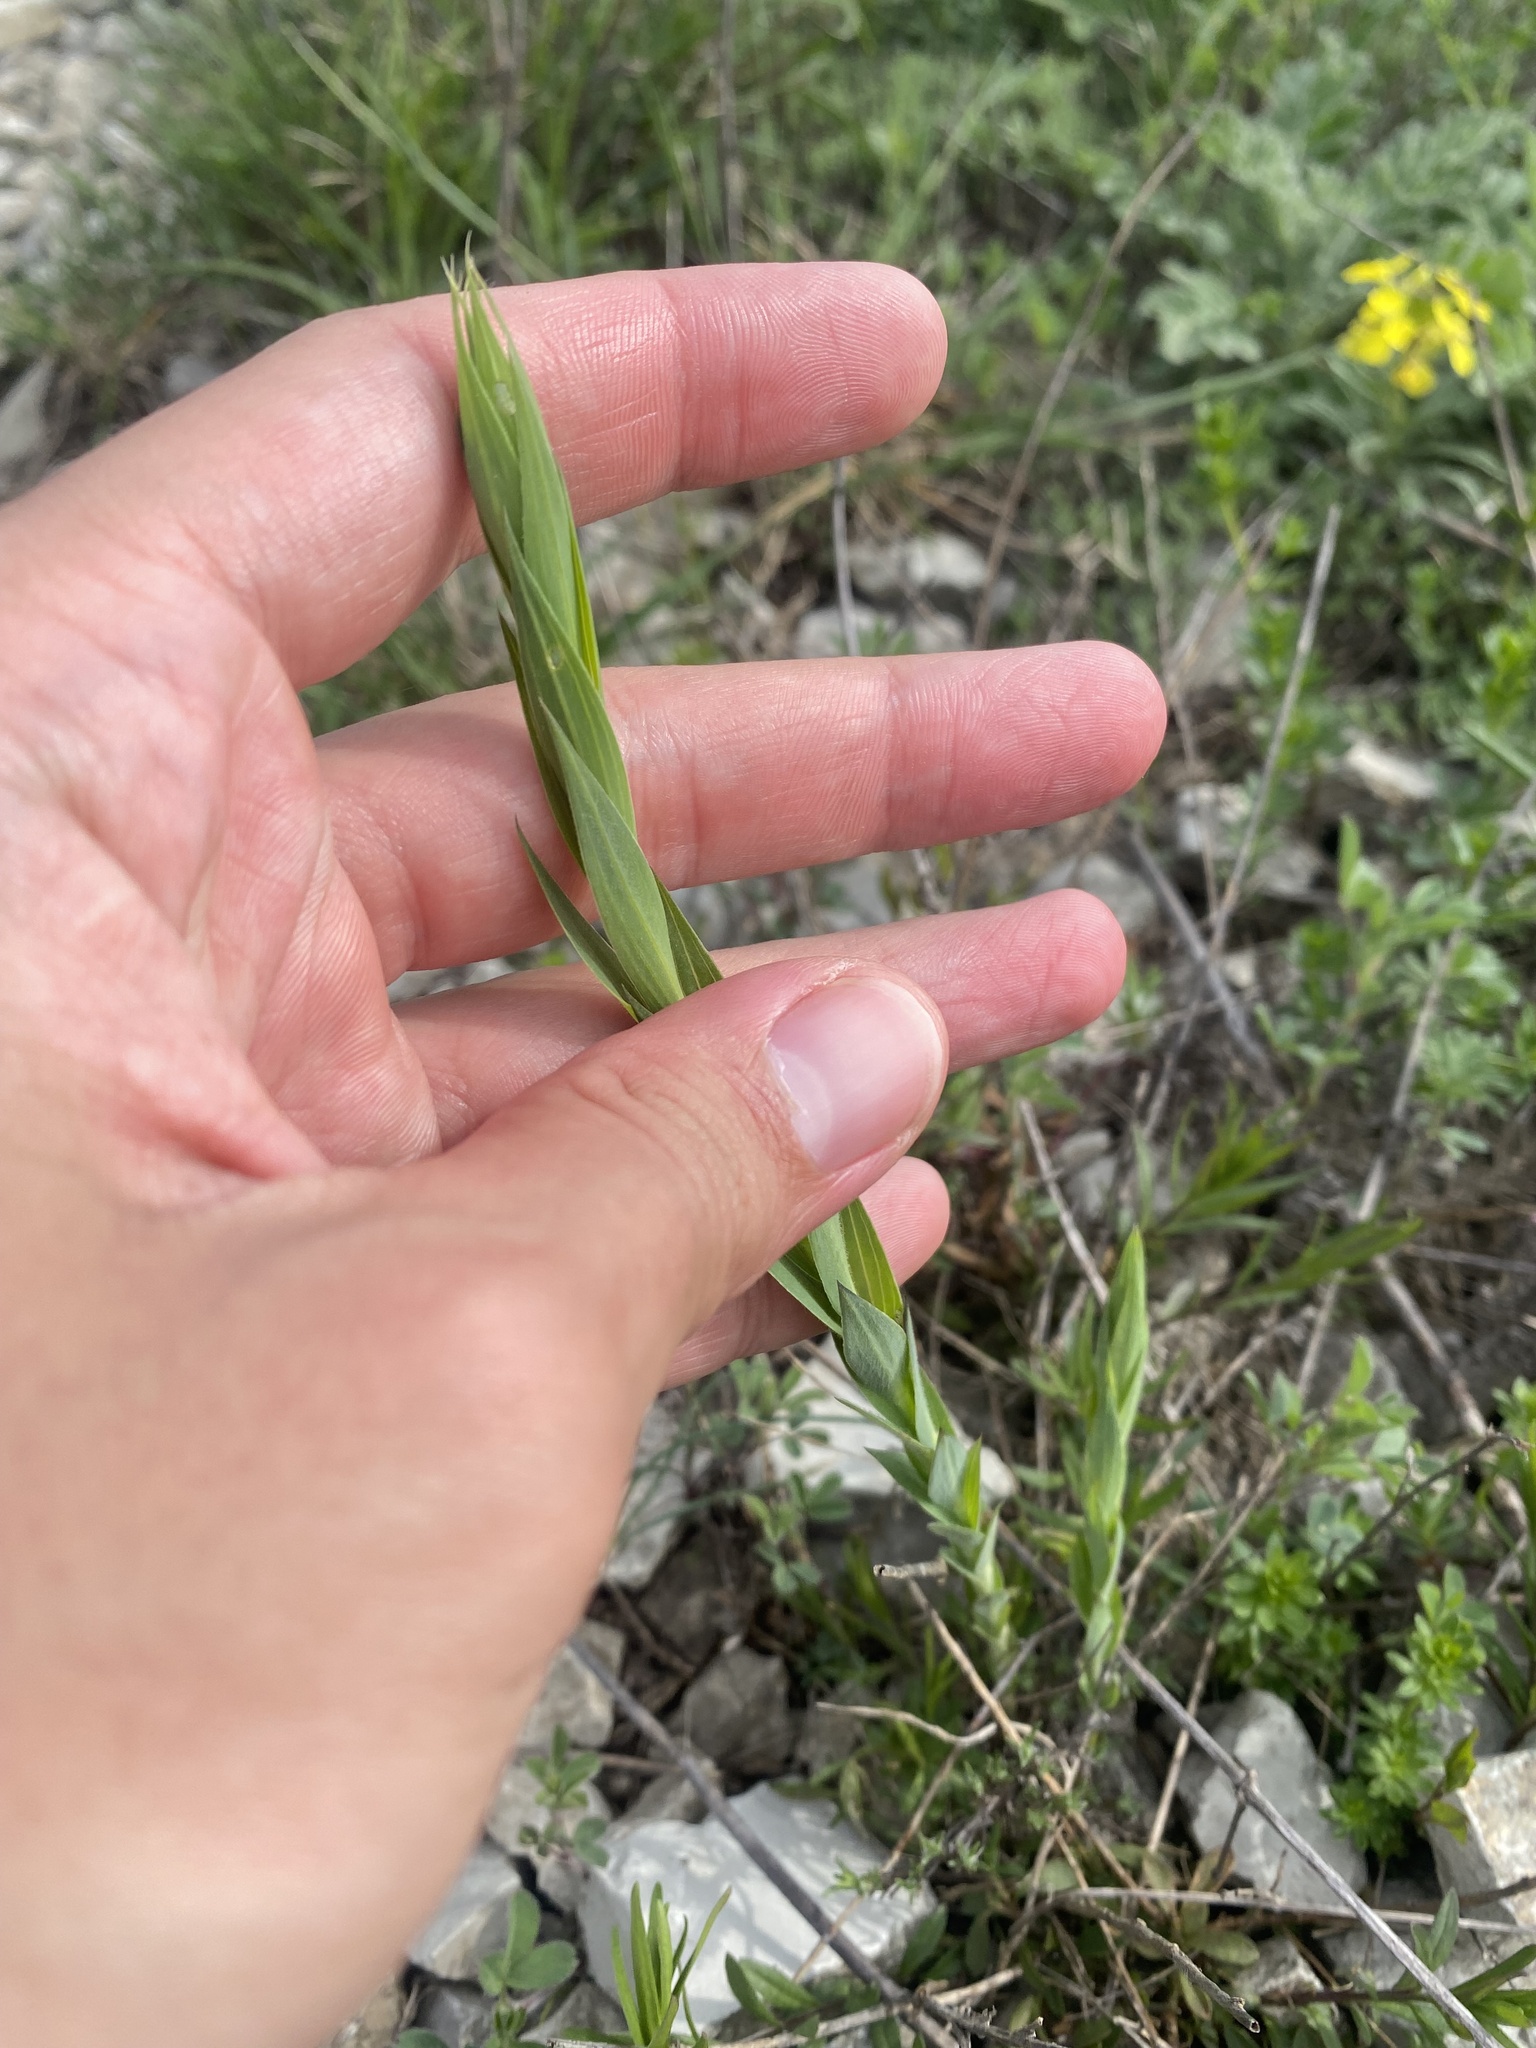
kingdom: Plantae
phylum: Tracheophyta
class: Magnoliopsida
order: Malpighiales
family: Linaceae
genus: Linum
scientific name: Linum nervosum
